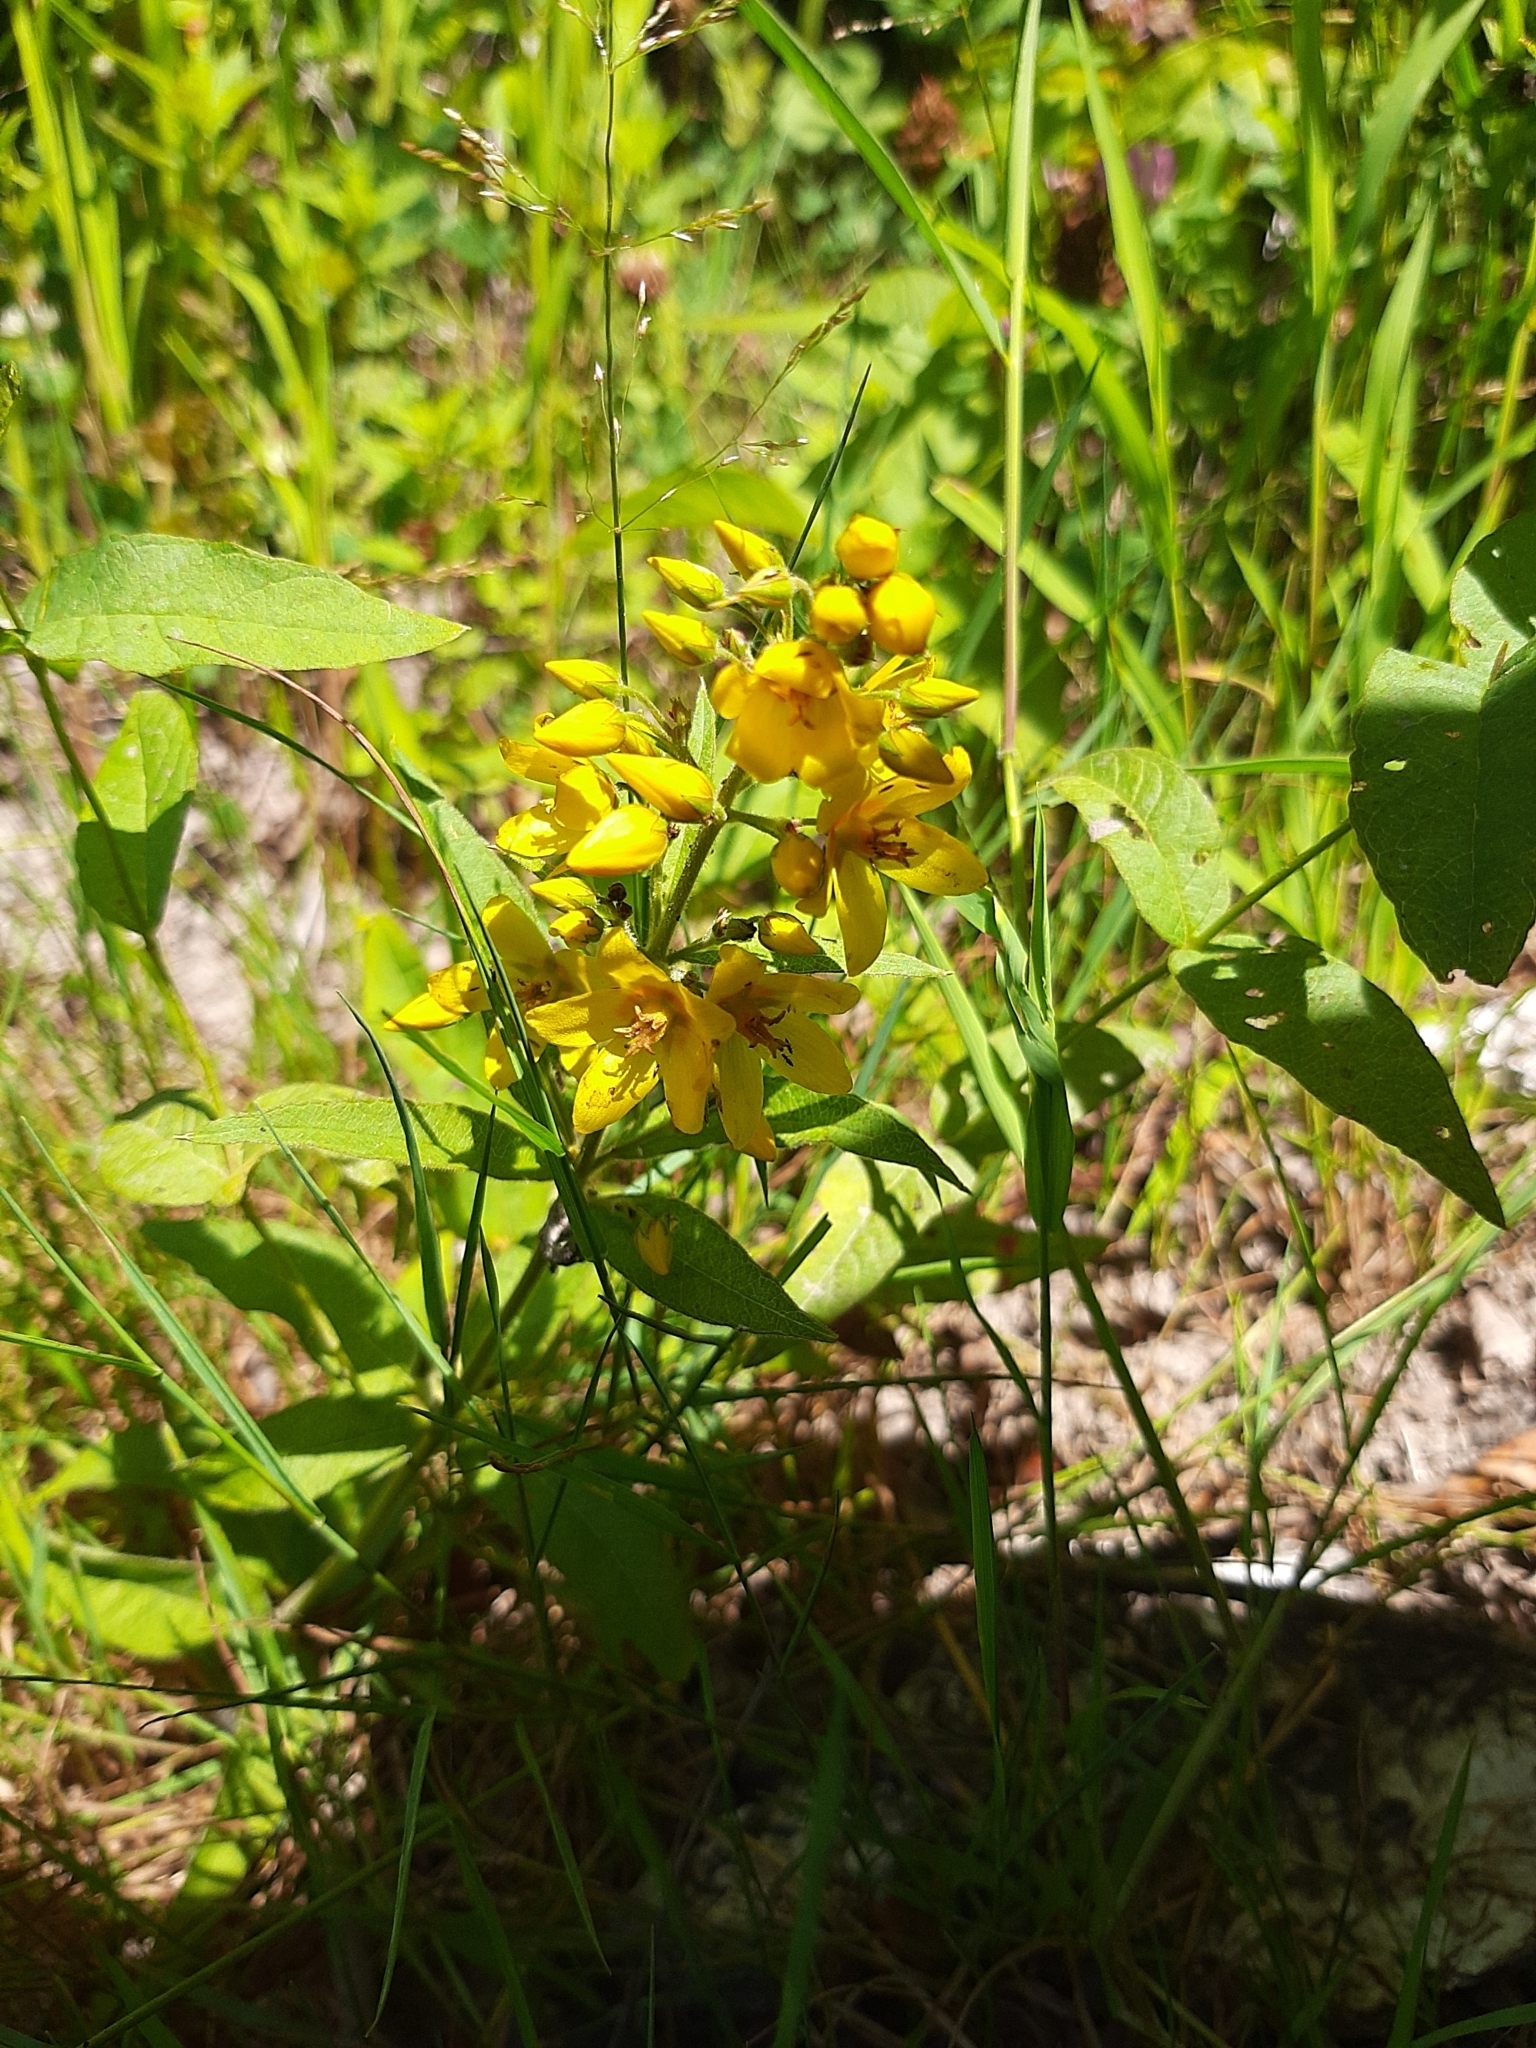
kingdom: Plantae
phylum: Tracheophyta
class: Magnoliopsida
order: Ericales
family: Primulaceae
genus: Lysimachia
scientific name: Lysimachia vulgaris
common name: Yellow loosestrife
